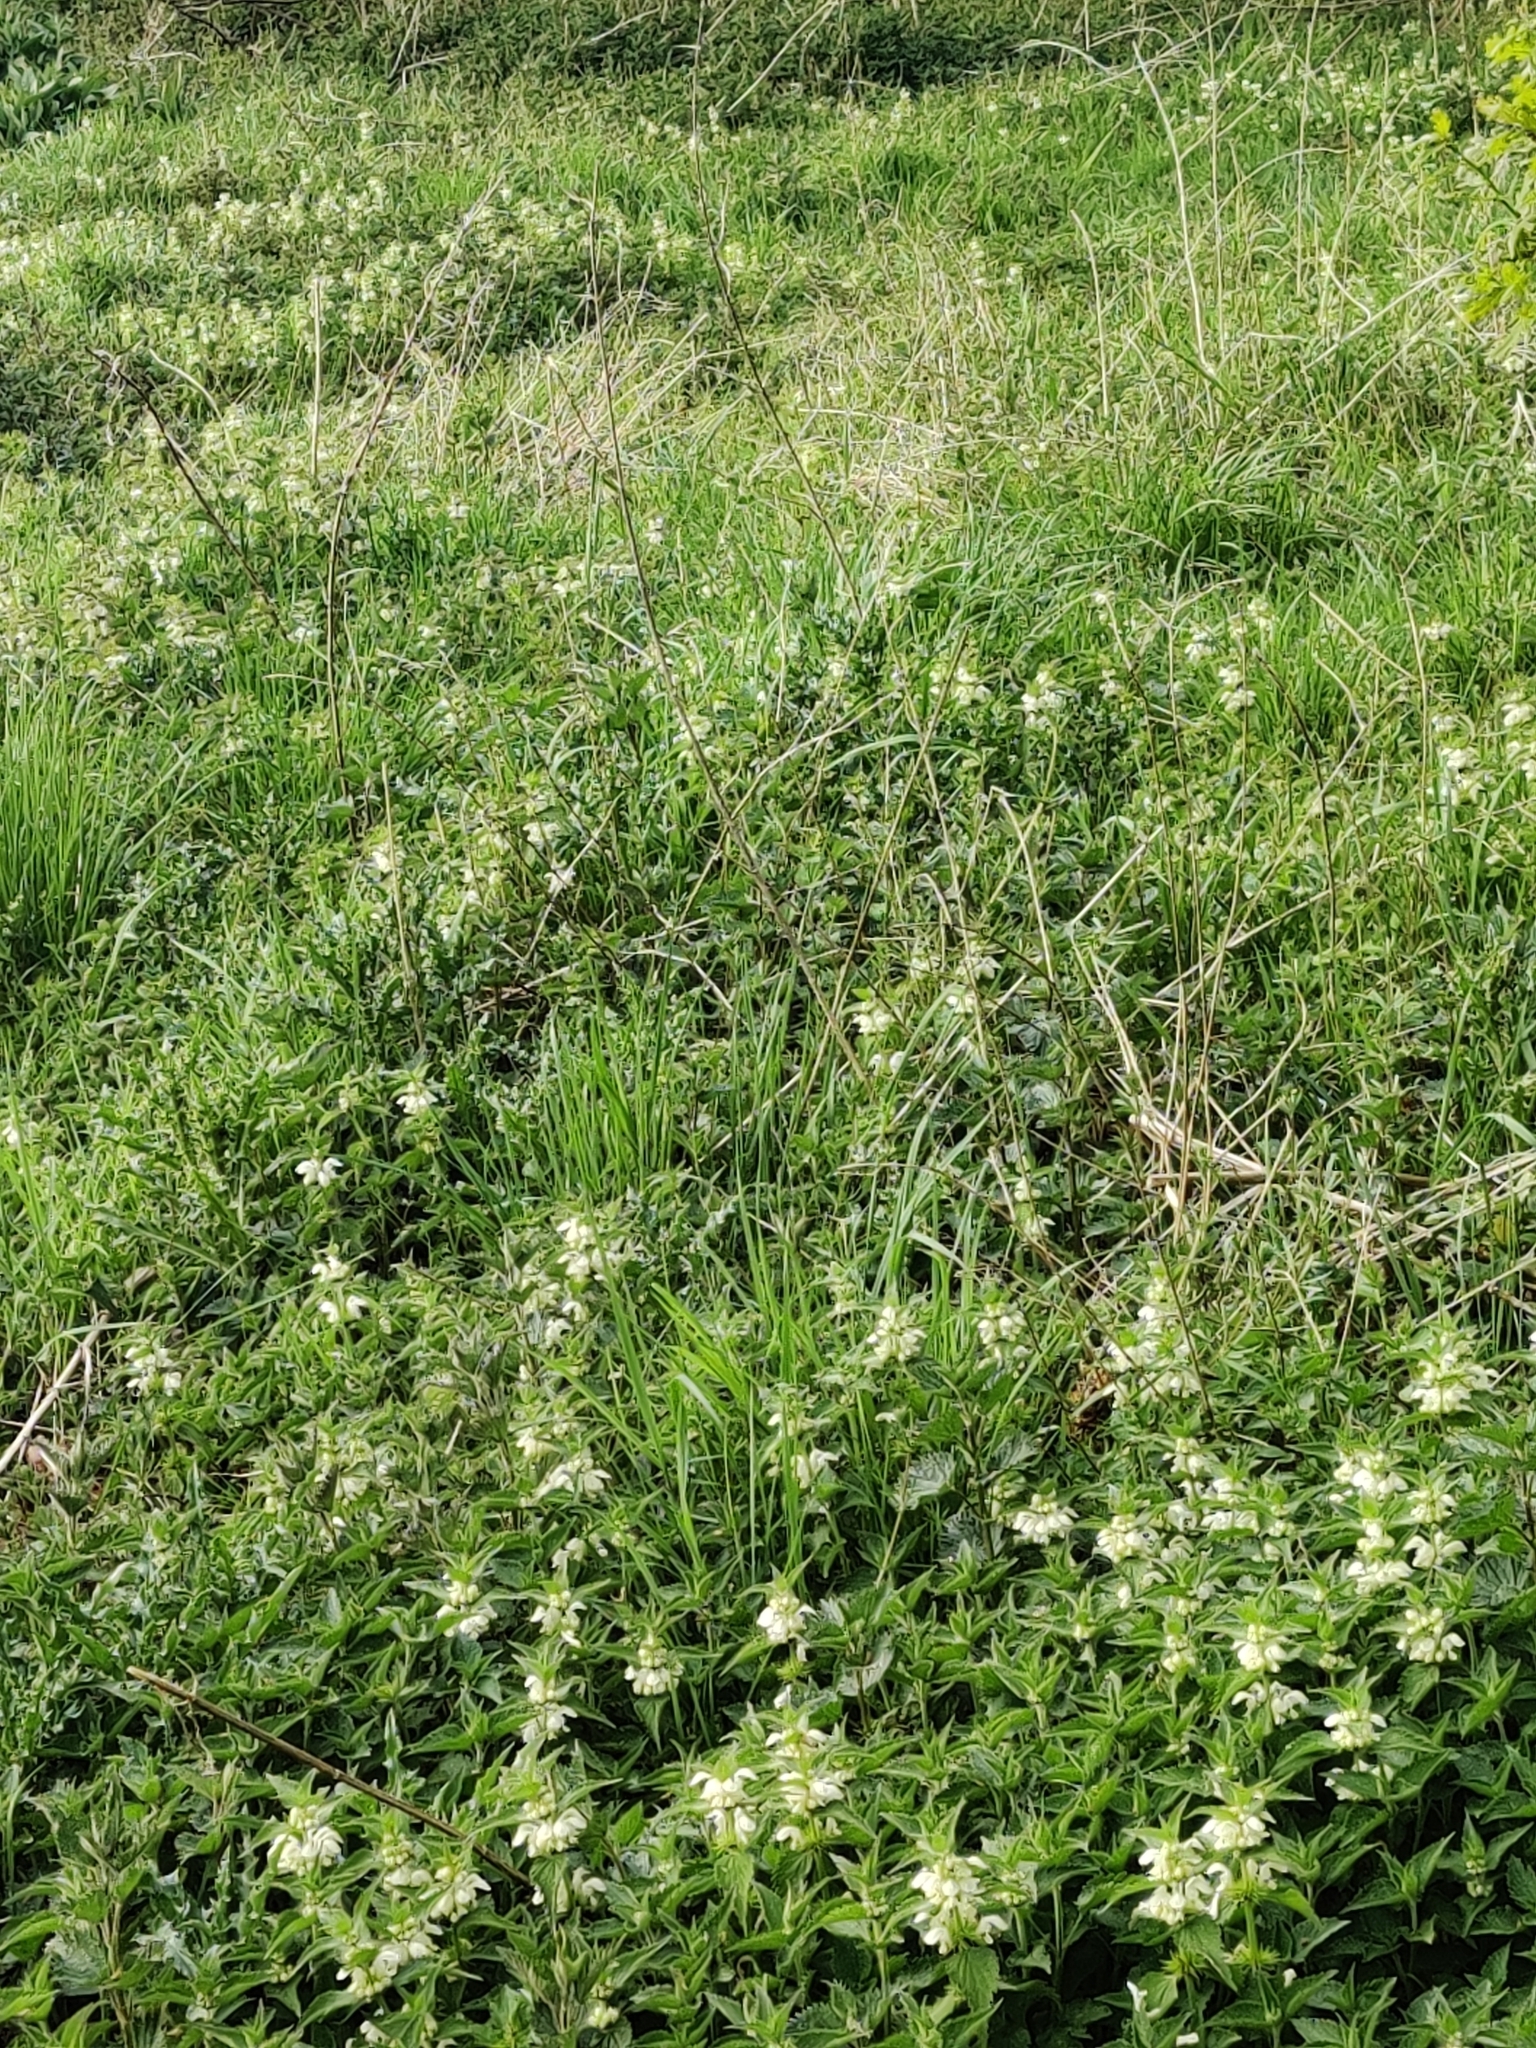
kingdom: Plantae
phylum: Tracheophyta
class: Magnoliopsida
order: Lamiales
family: Lamiaceae
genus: Lamium
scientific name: Lamium album
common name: White dead-nettle
